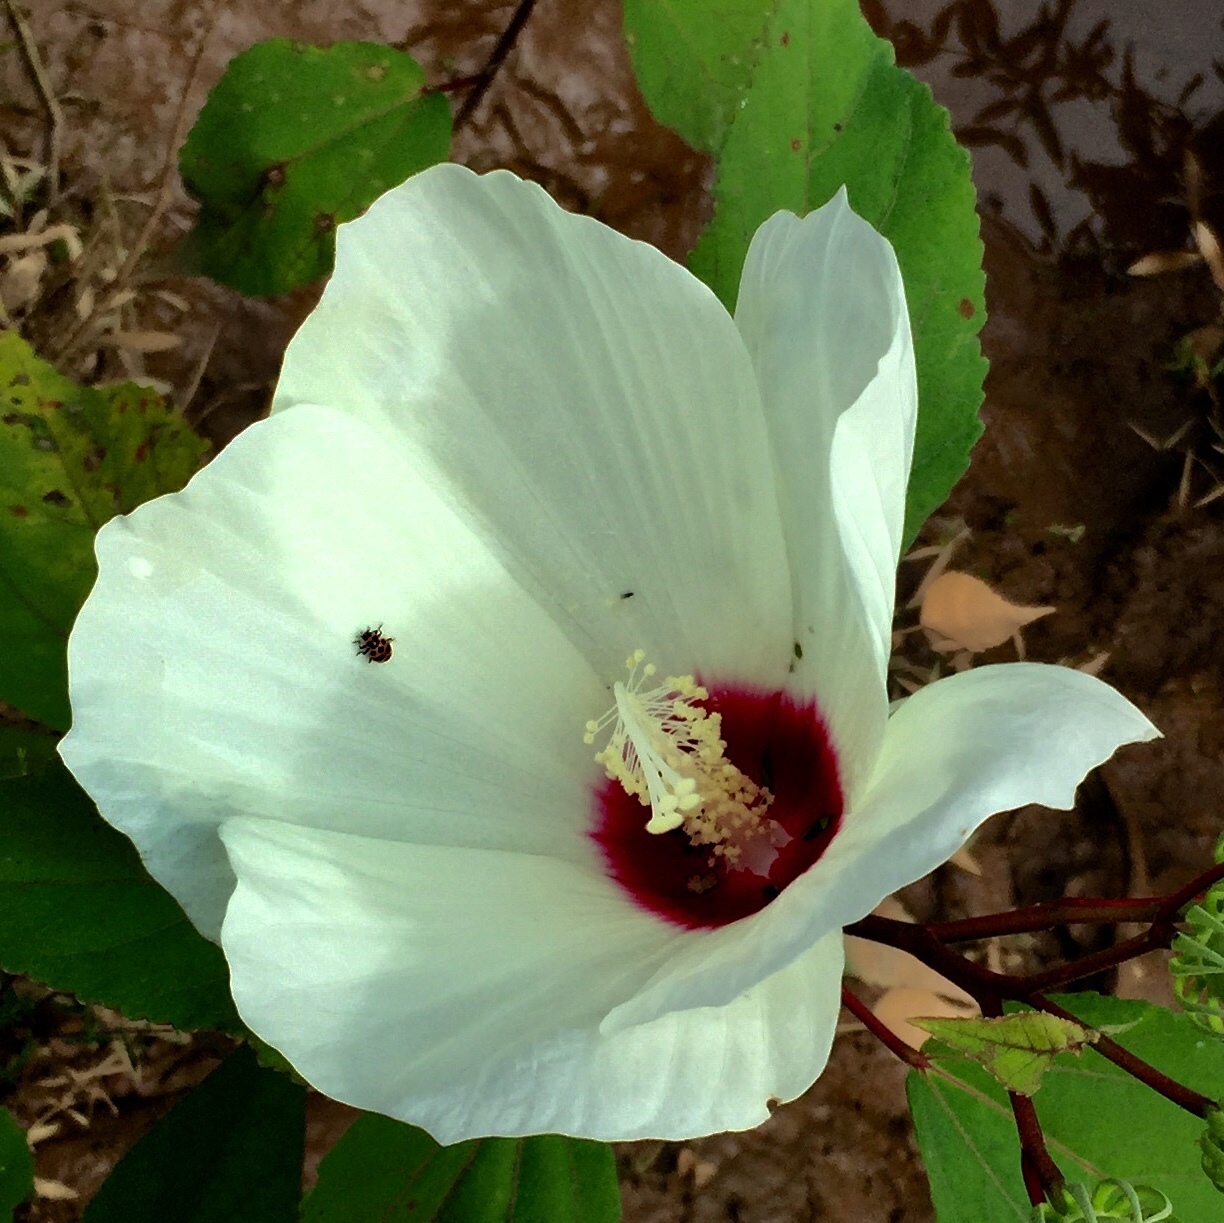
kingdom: Plantae
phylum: Tracheophyta
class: Magnoliopsida
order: Malvales
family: Malvaceae
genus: Hibiscus
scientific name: Hibiscus moscheutos
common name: Common rose-mallow
